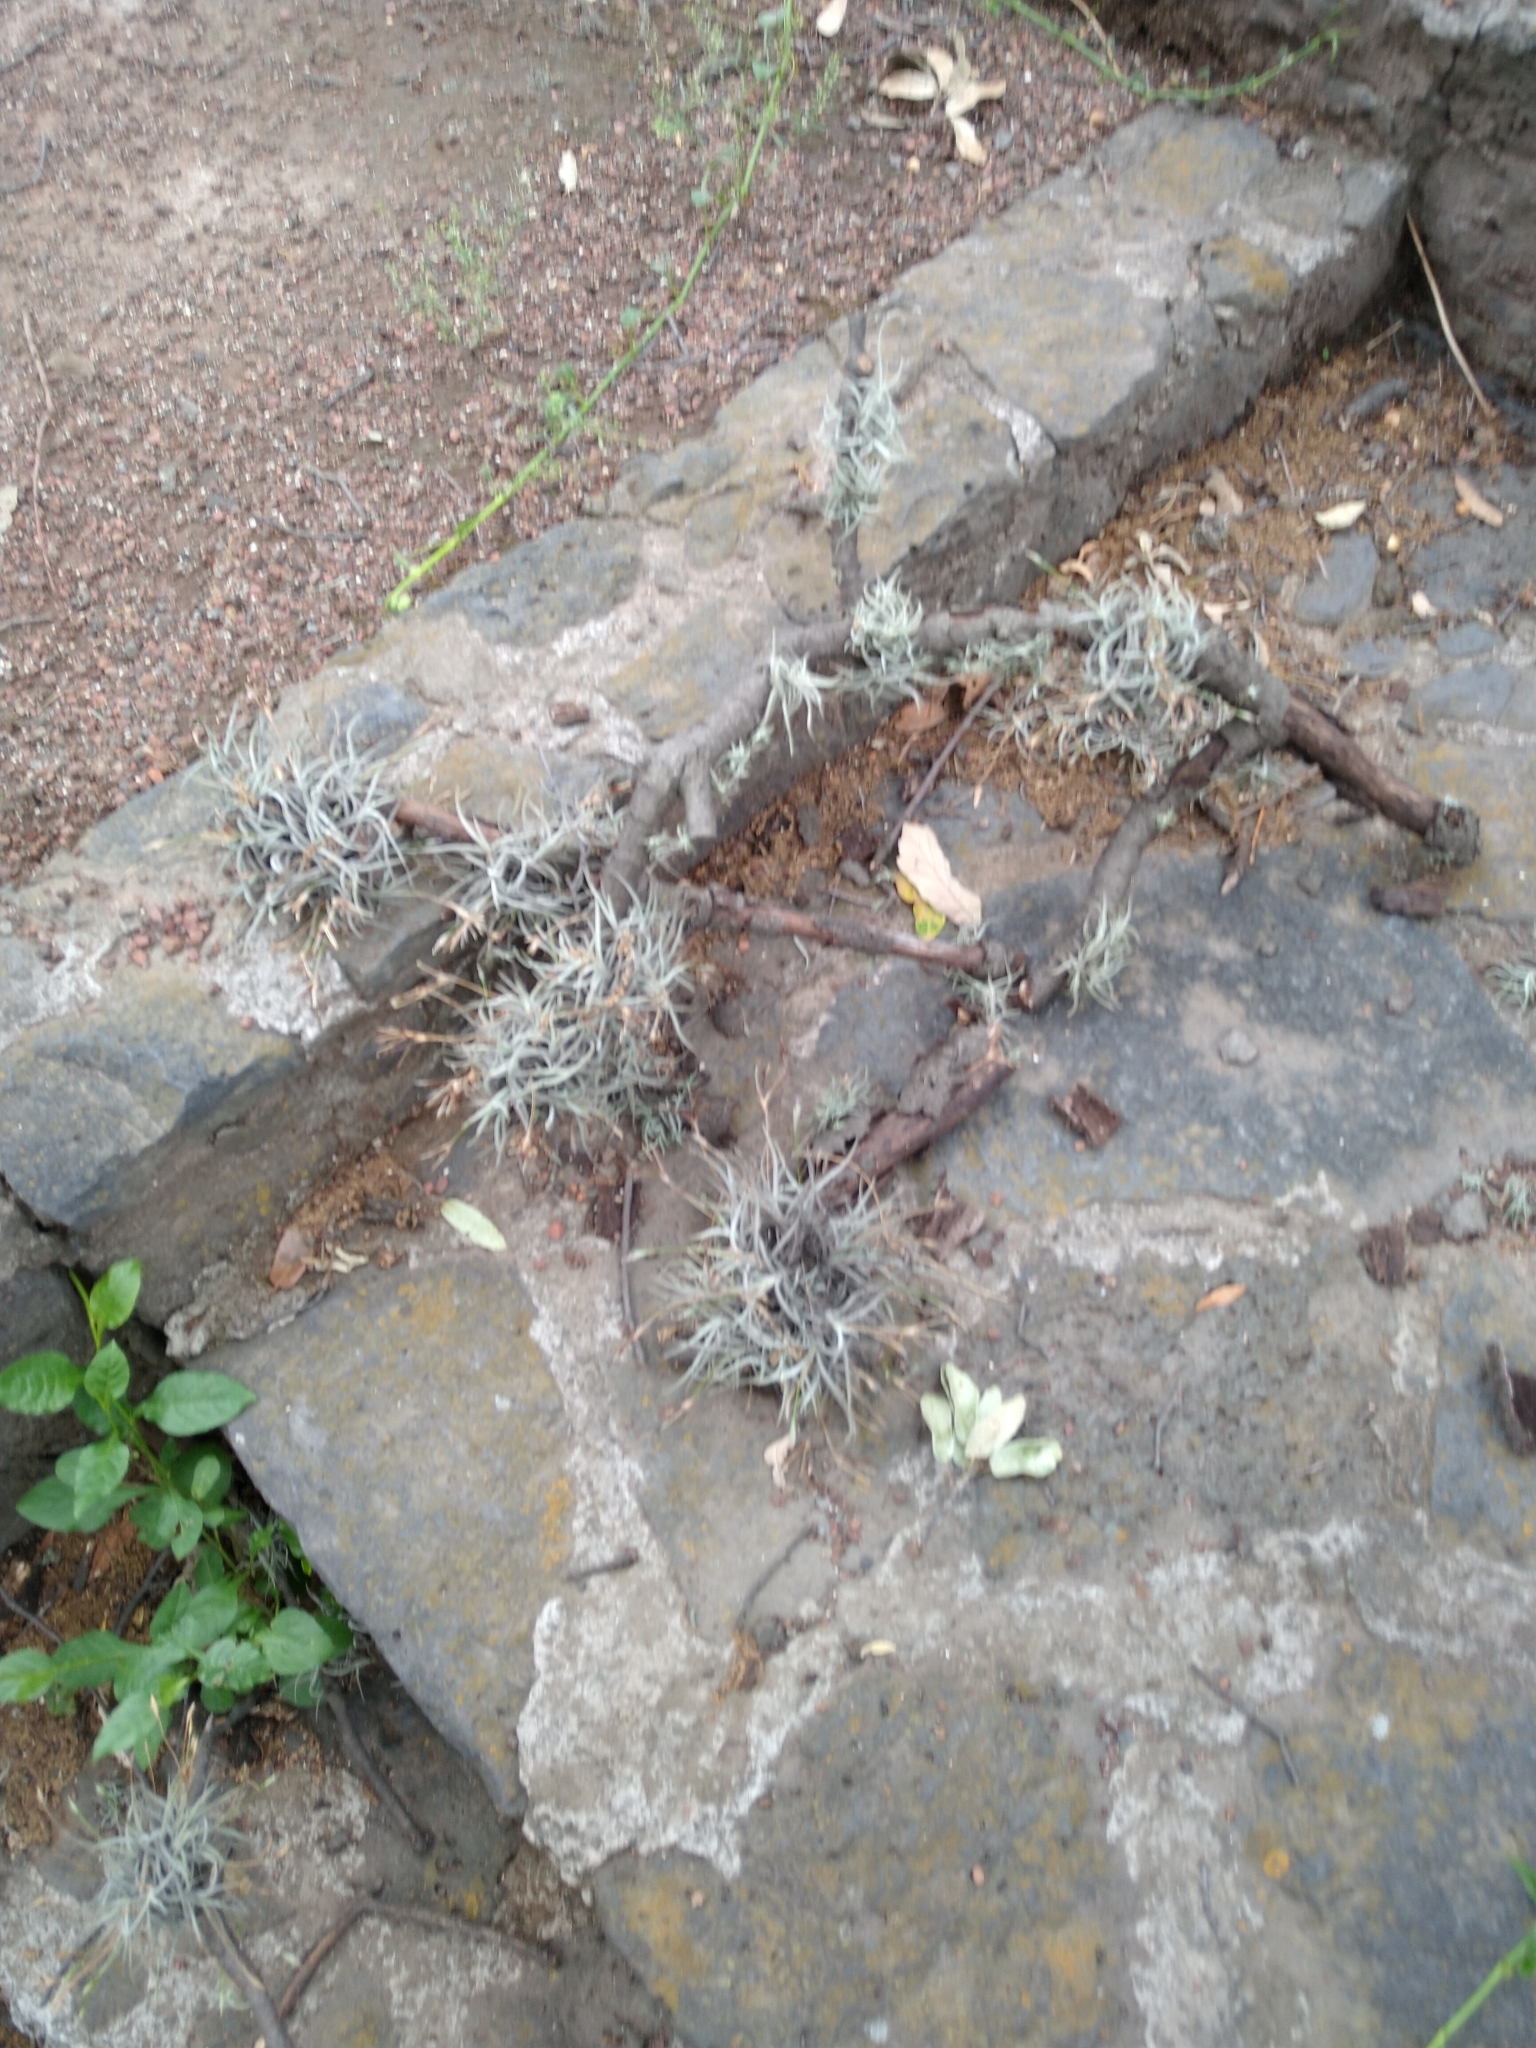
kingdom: Plantae
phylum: Tracheophyta
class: Liliopsida
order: Poales
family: Bromeliaceae
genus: Tillandsia
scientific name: Tillandsia recurvata
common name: Small ballmoss
